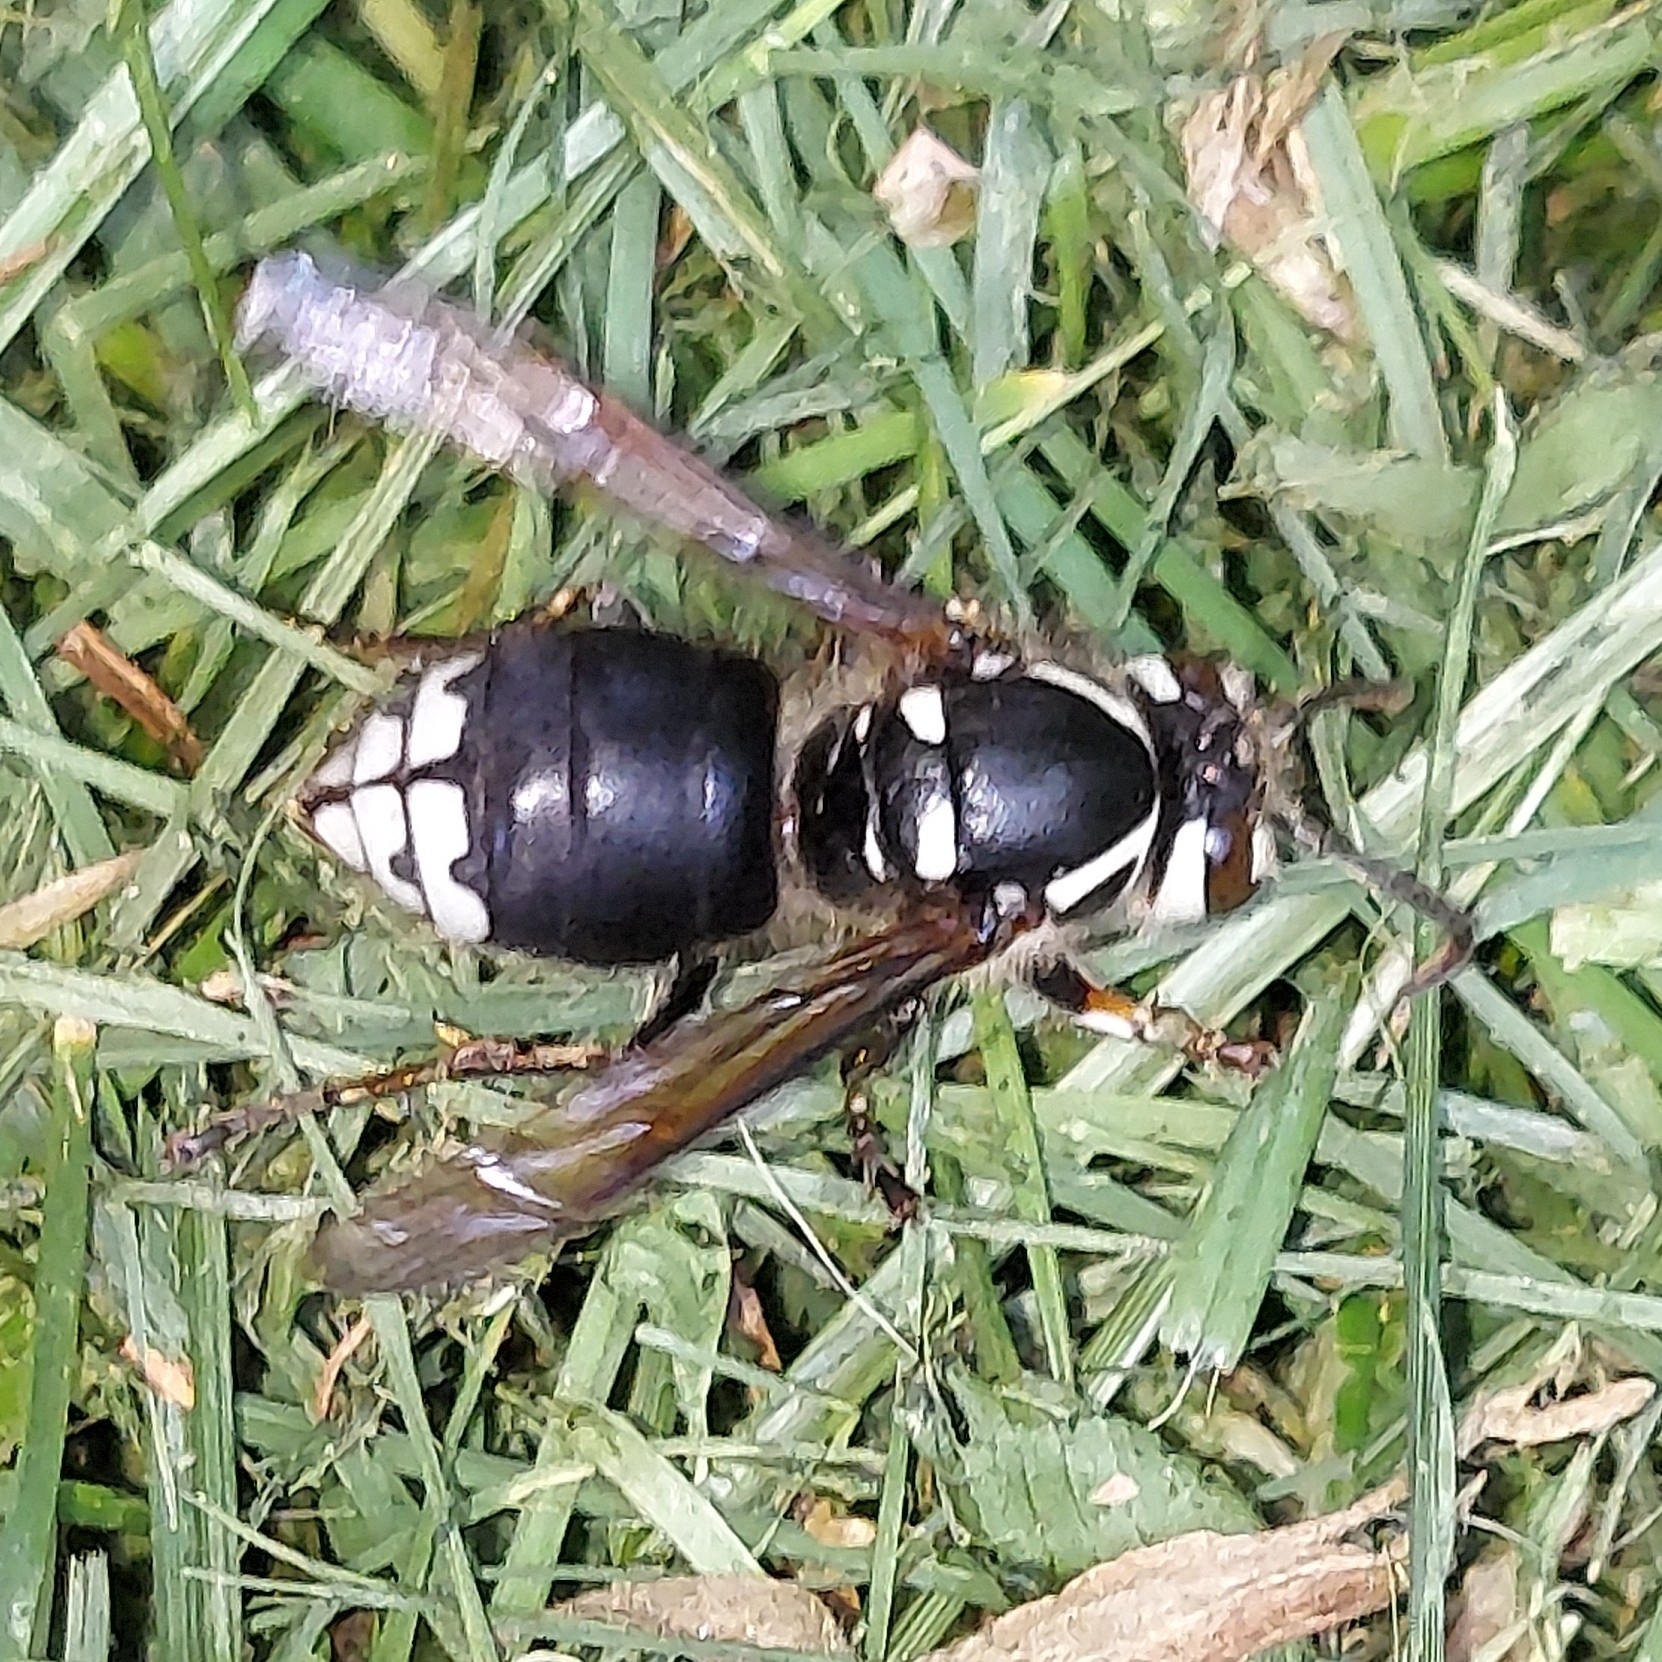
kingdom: Animalia
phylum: Arthropoda
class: Insecta
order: Hymenoptera
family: Vespidae
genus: Dolichovespula
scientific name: Dolichovespula maculata
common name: Bald-faced hornet
